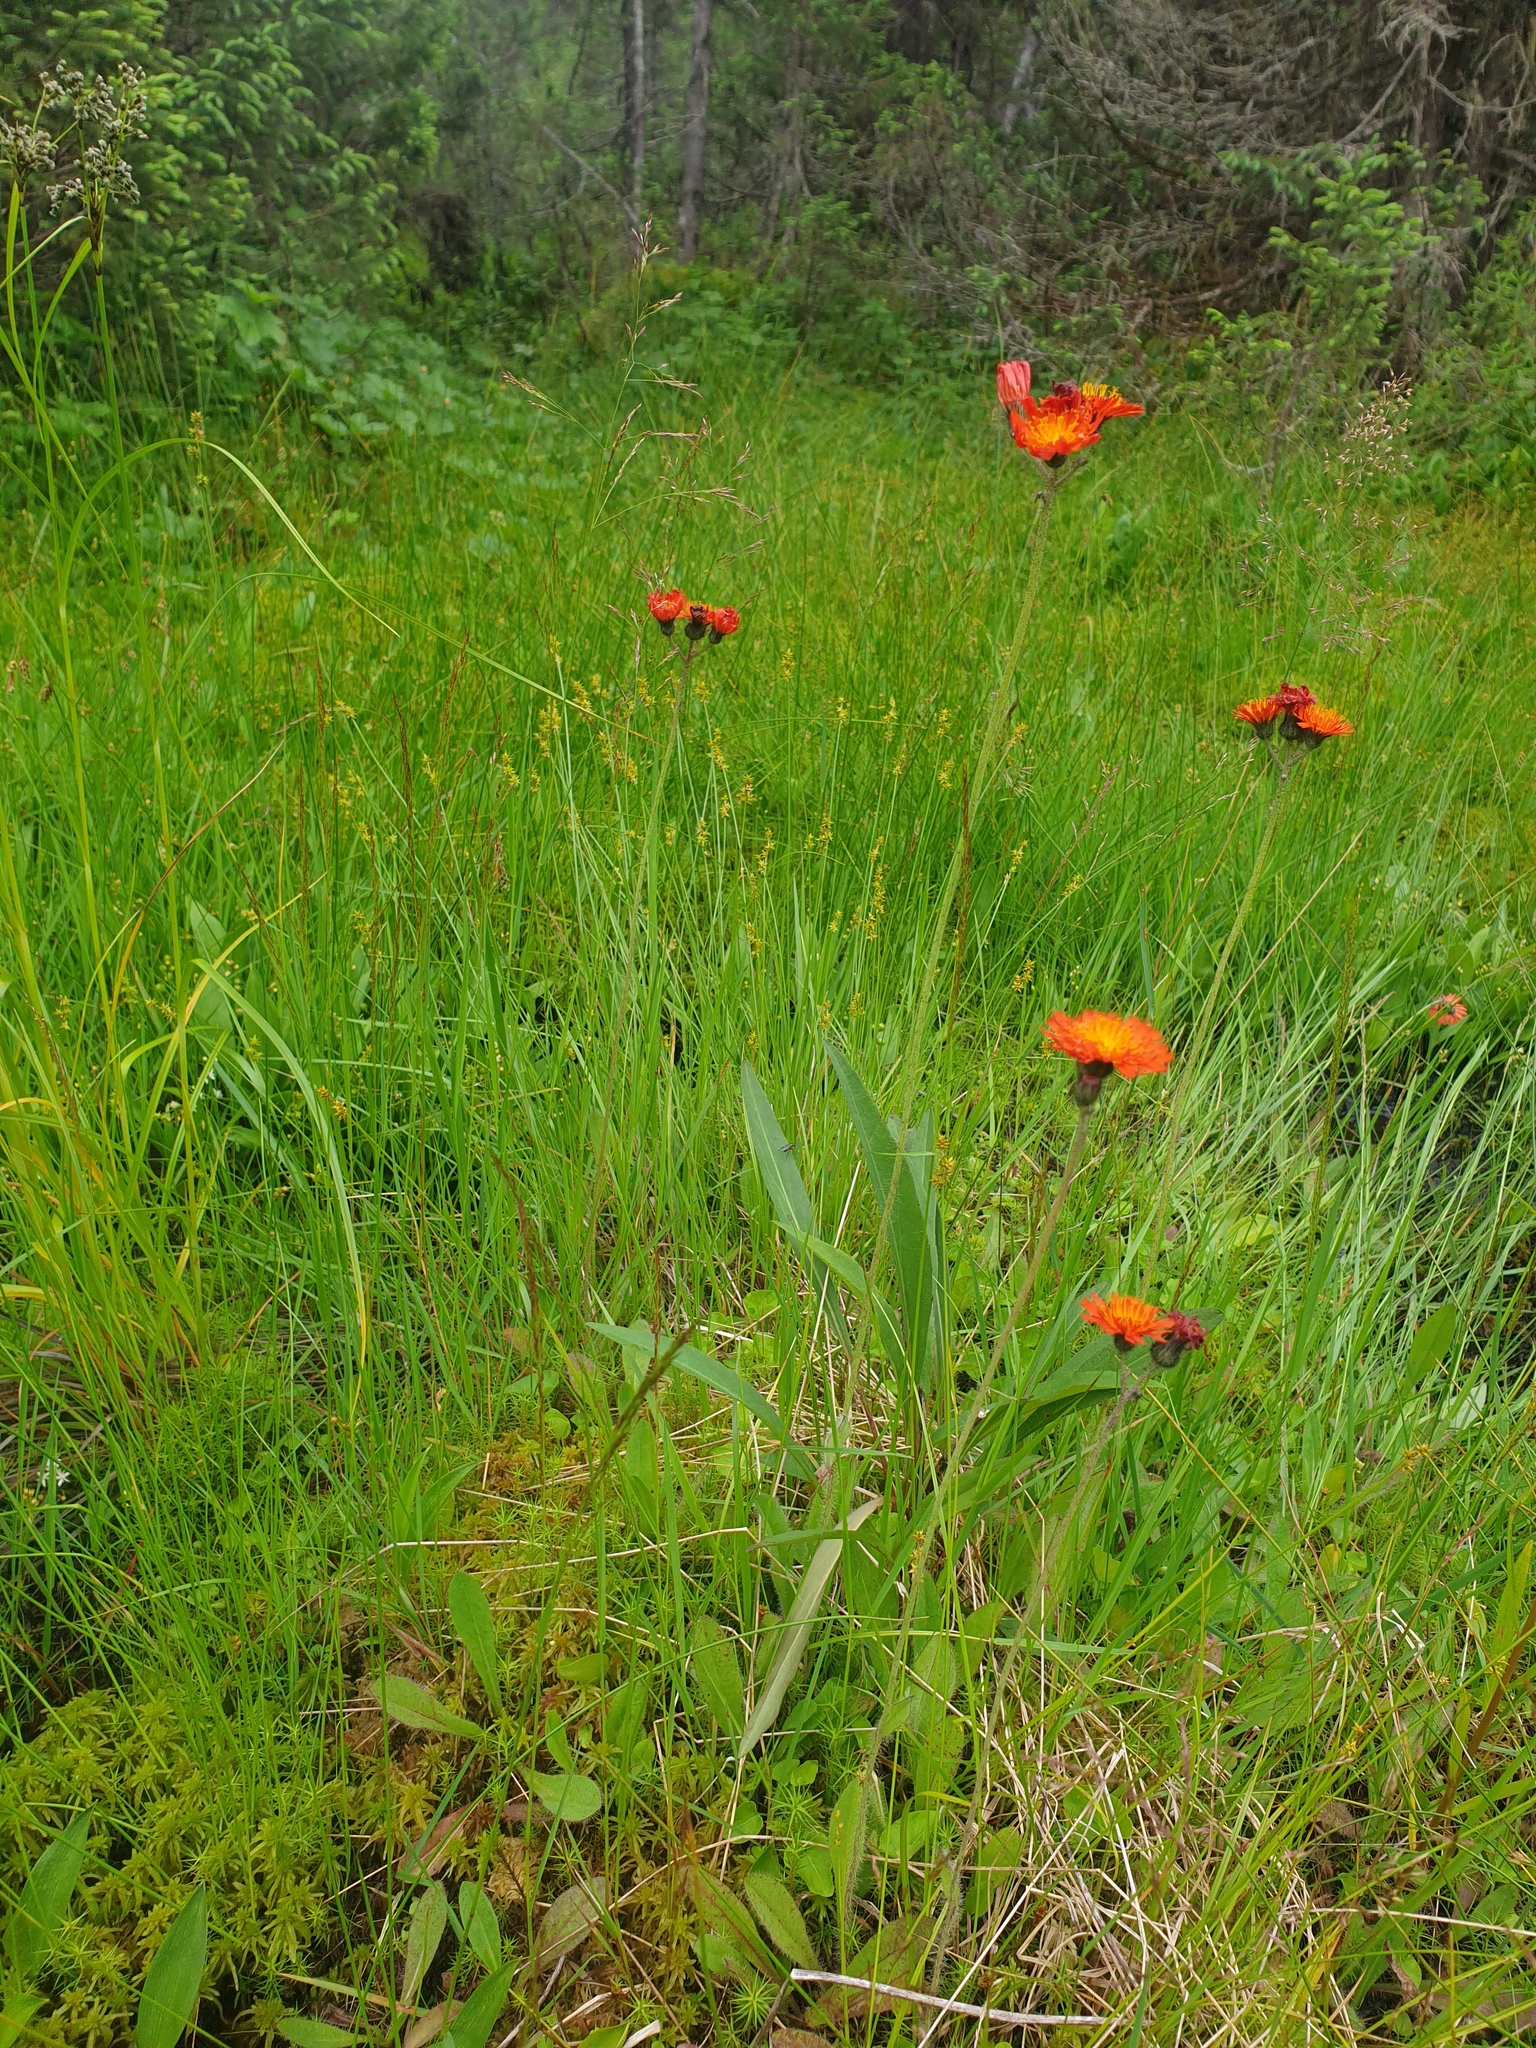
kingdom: Plantae
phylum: Tracheophyta
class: Magnoliopsida
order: Asterales
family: Asteraceae
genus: Pilosella
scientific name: Pilosella aurantiaca
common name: Fox-and-cubs
